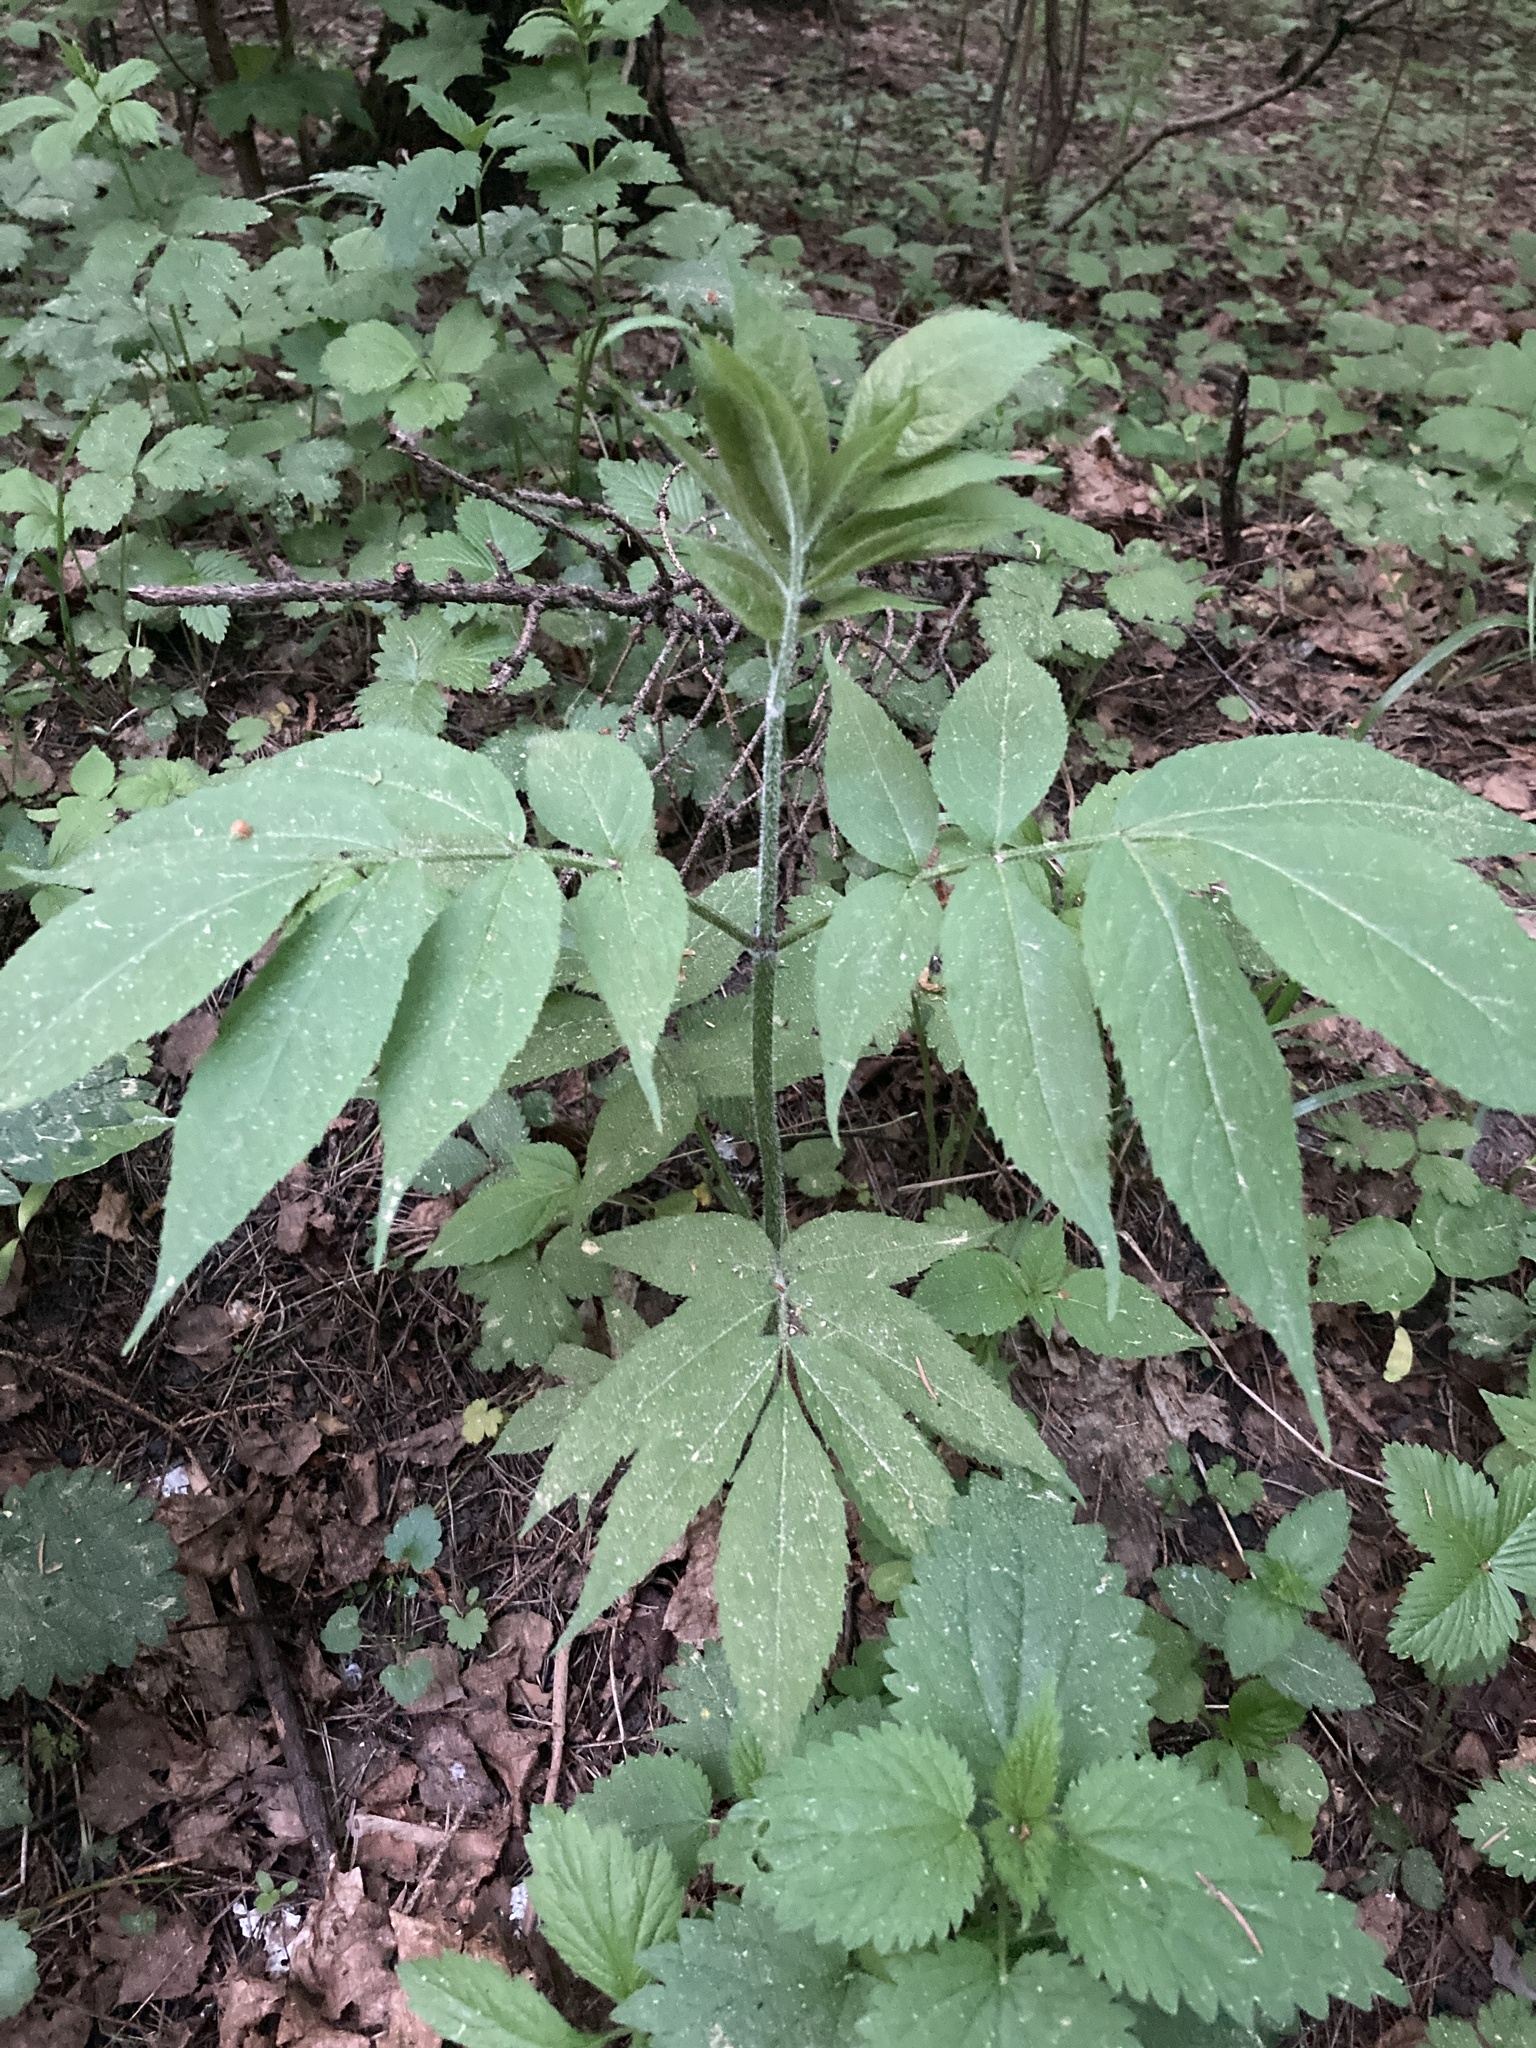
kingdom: Plantae
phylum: Tracheophyta
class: Magnoliopsida
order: Dipsacales
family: Viburnaceae
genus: Sambucus
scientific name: Sambucus racemosa
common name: Red-berried elder
